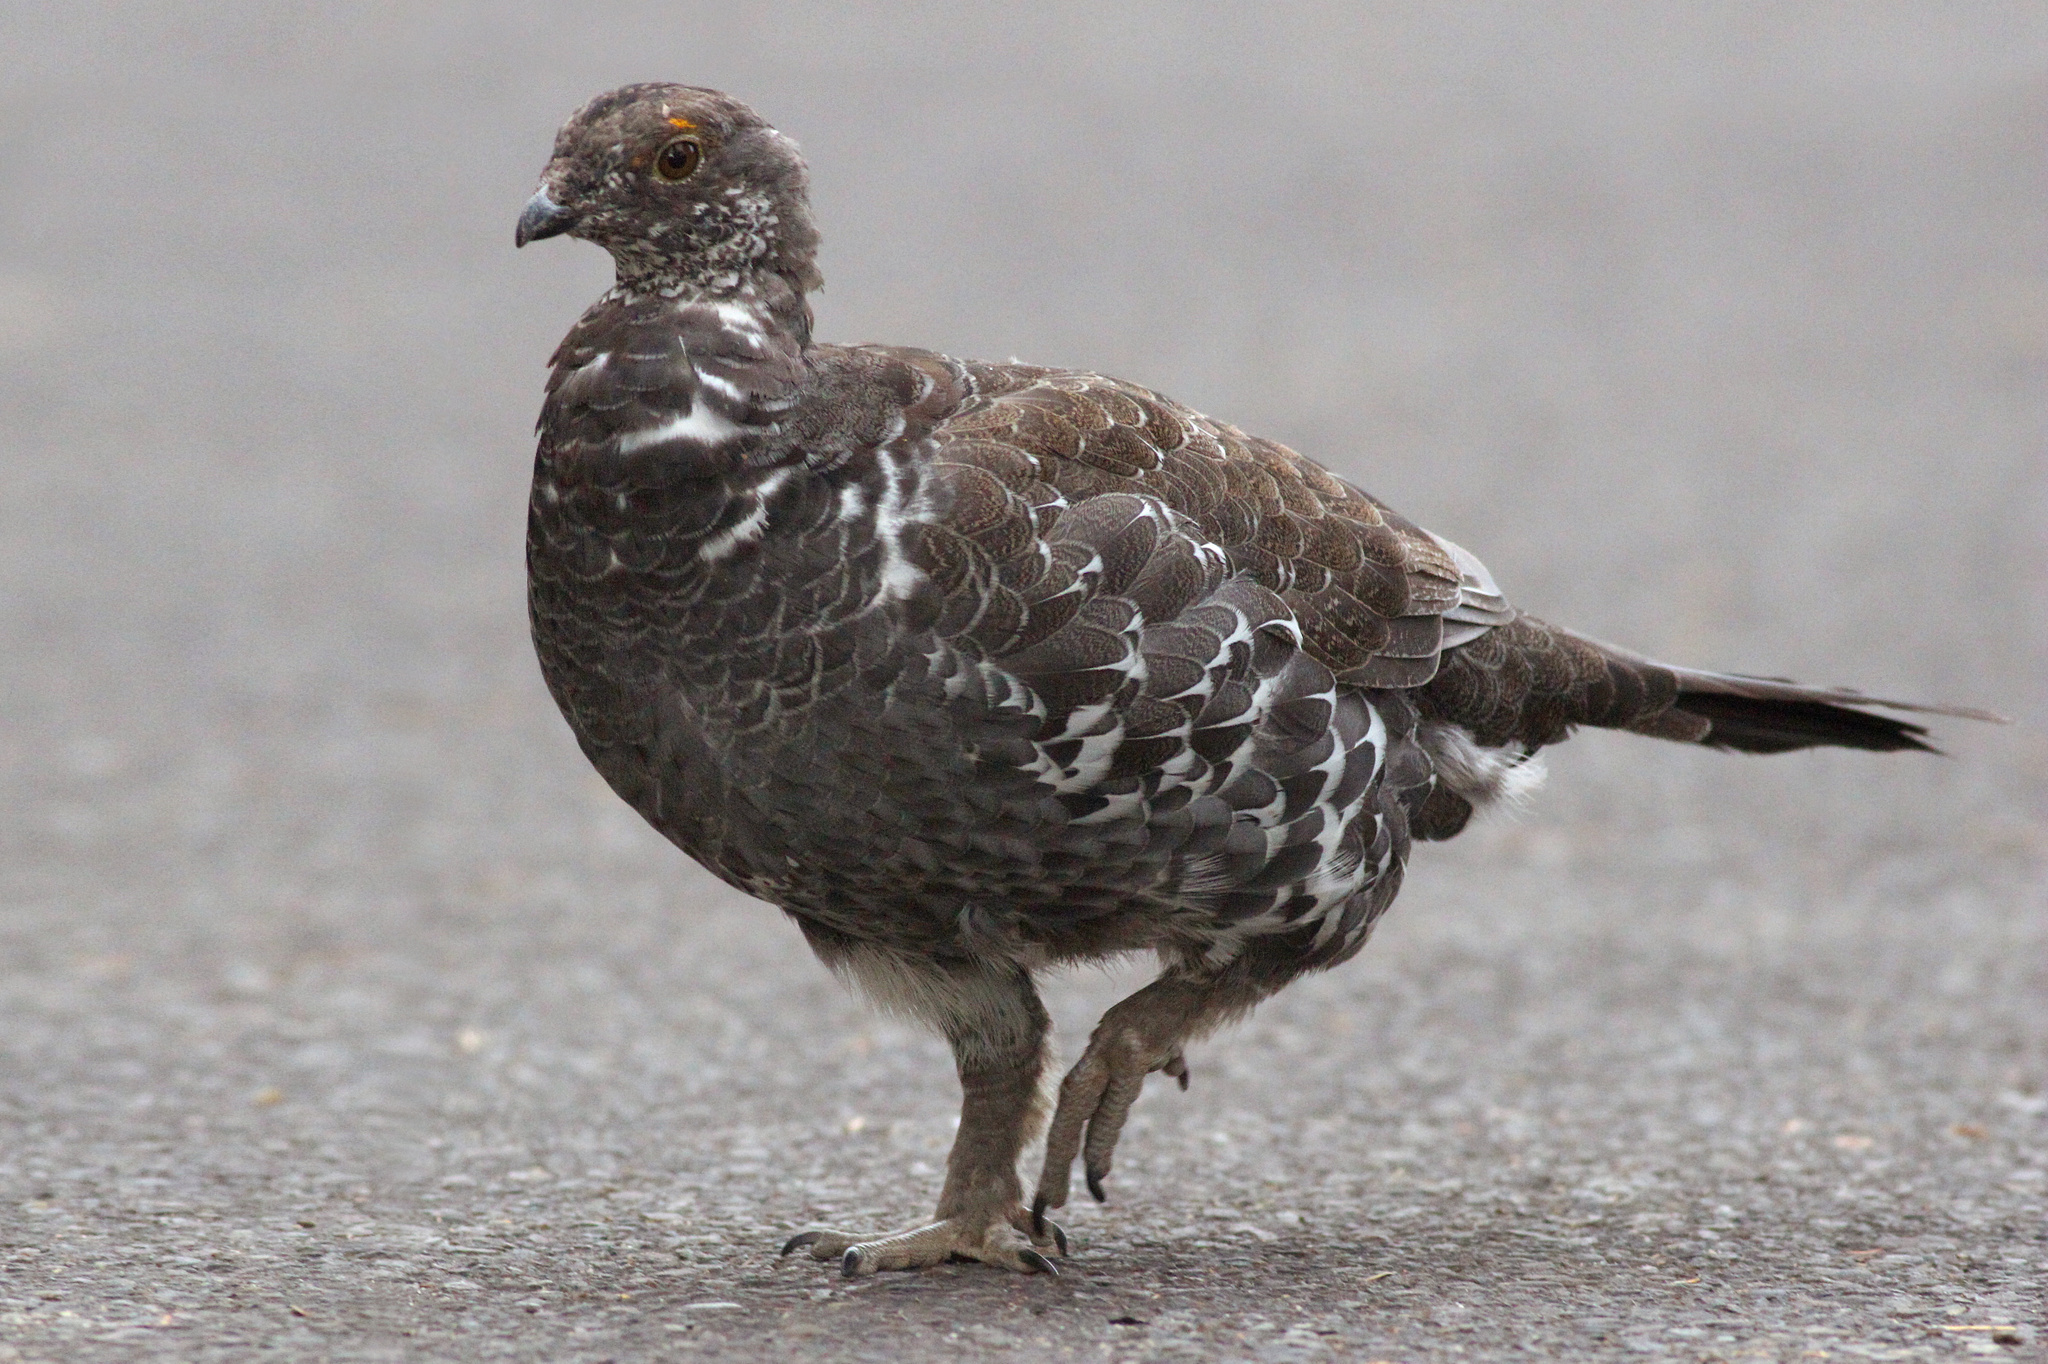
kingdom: Animalia
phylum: Chordata
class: Aves
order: Galliformes
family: Phasianidae
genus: Dendragapus
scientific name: Dendragapus obscurus
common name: Dusky grouse
